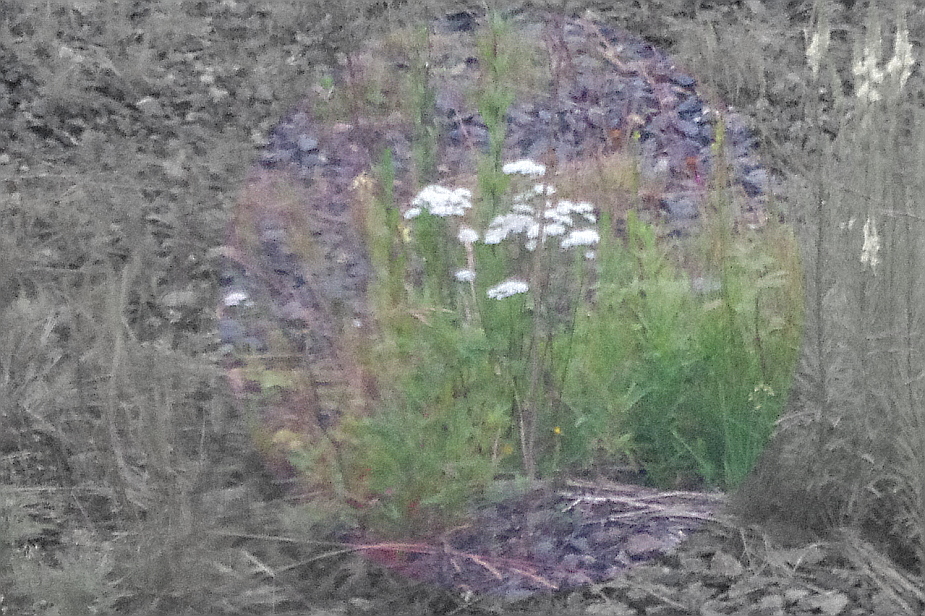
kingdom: Plantae
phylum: Tracheophyta
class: Magnoliopsida
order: Asterales
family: Asteraceae
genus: Achillea
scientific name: Achillea millefolium
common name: Yarrow
